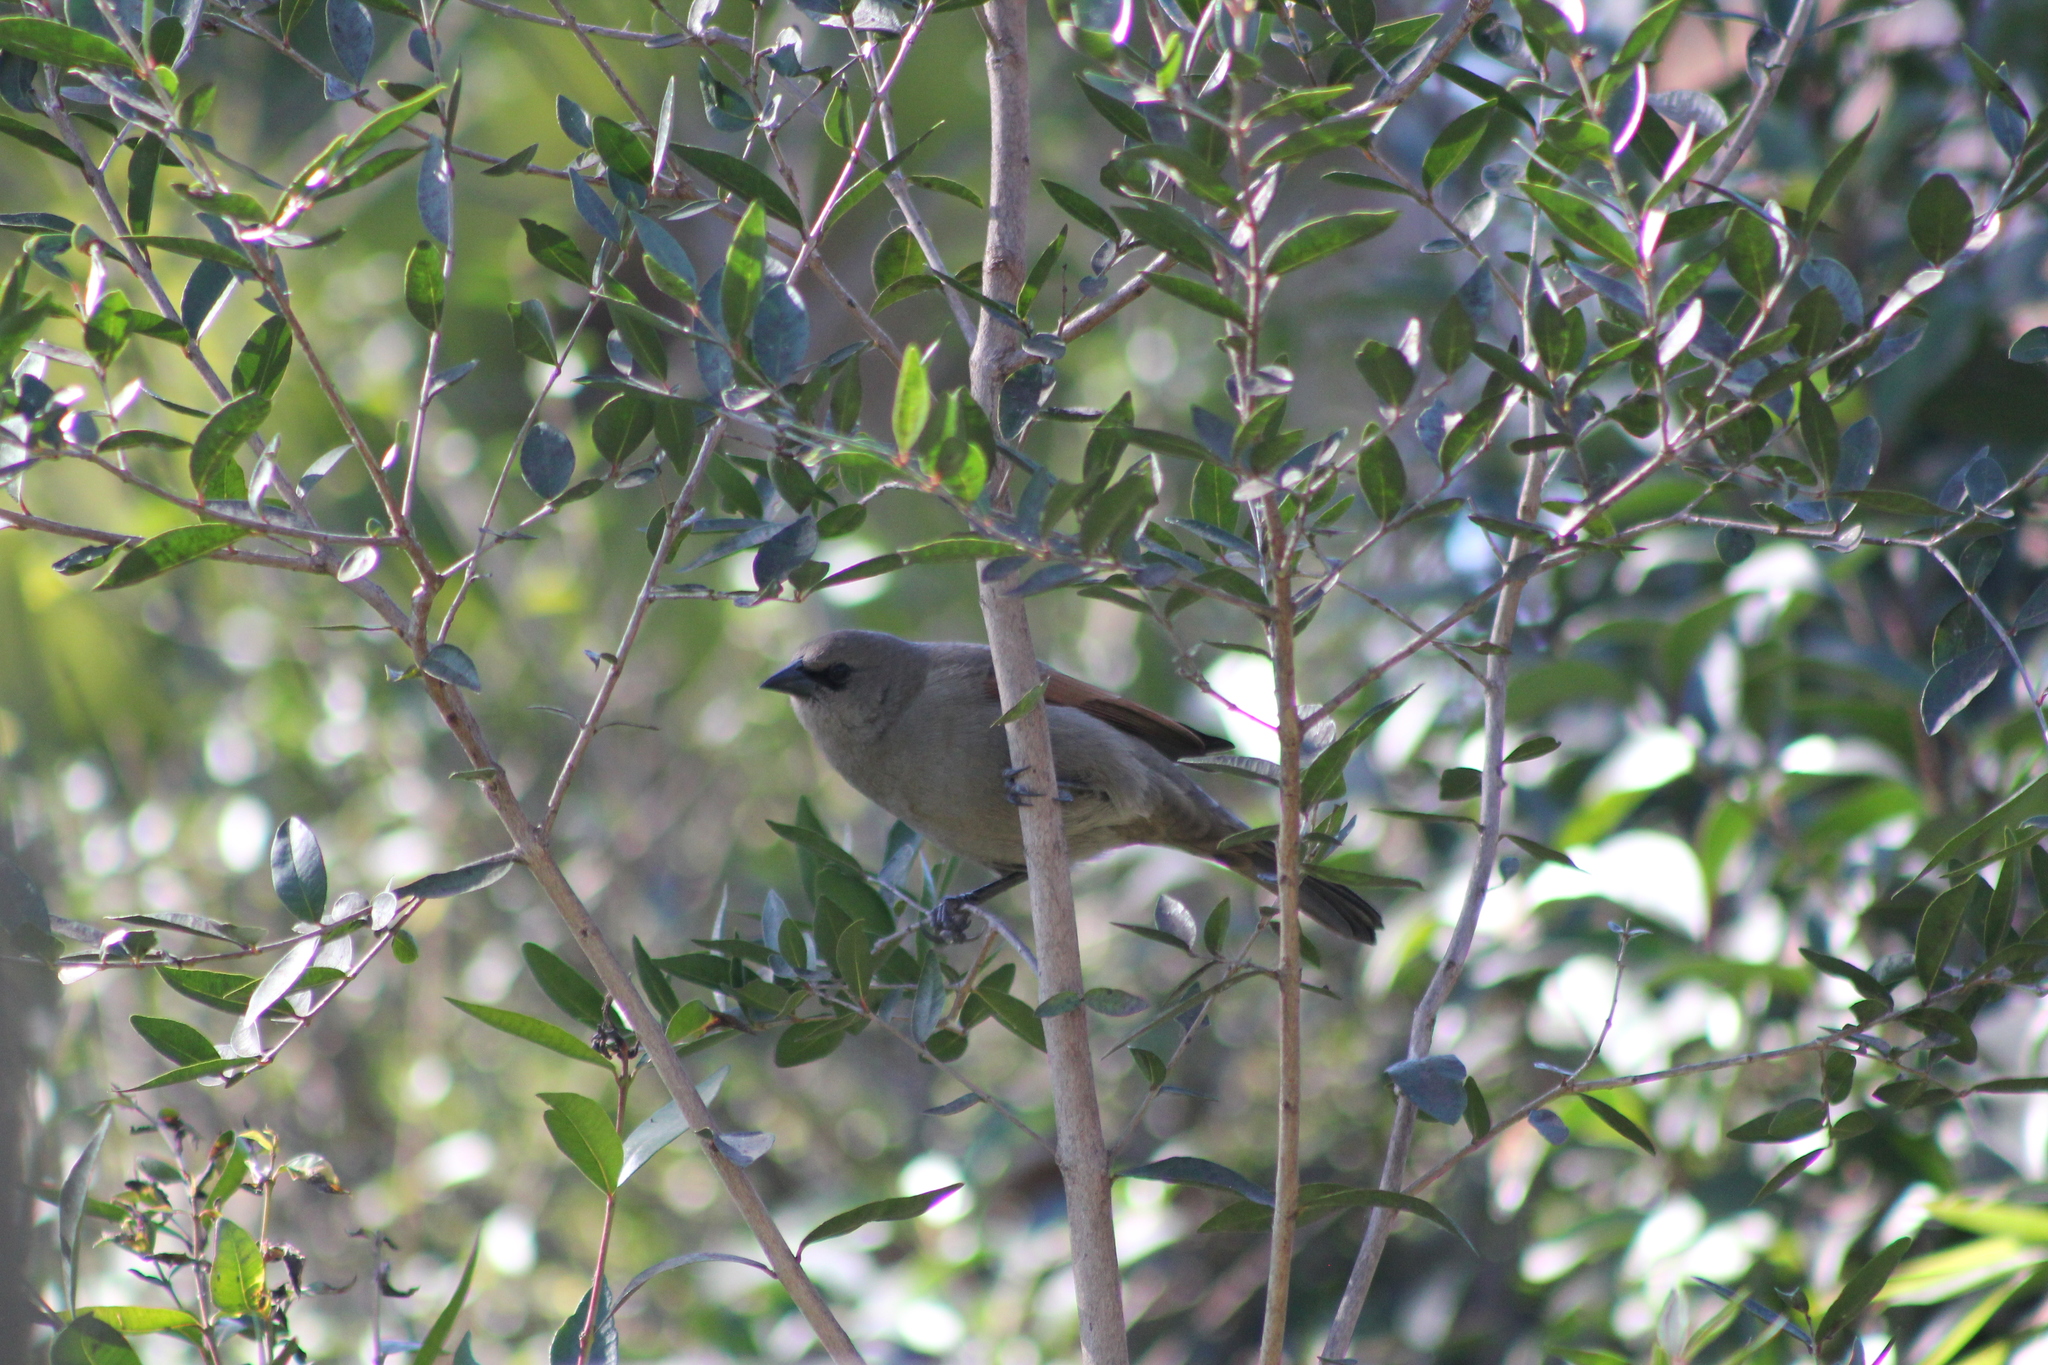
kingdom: Animalia
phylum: Chordata
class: Aves
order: Passeriformes
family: Icteridae
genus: Agelaioides
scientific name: Agelaioides badius
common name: Baywing
